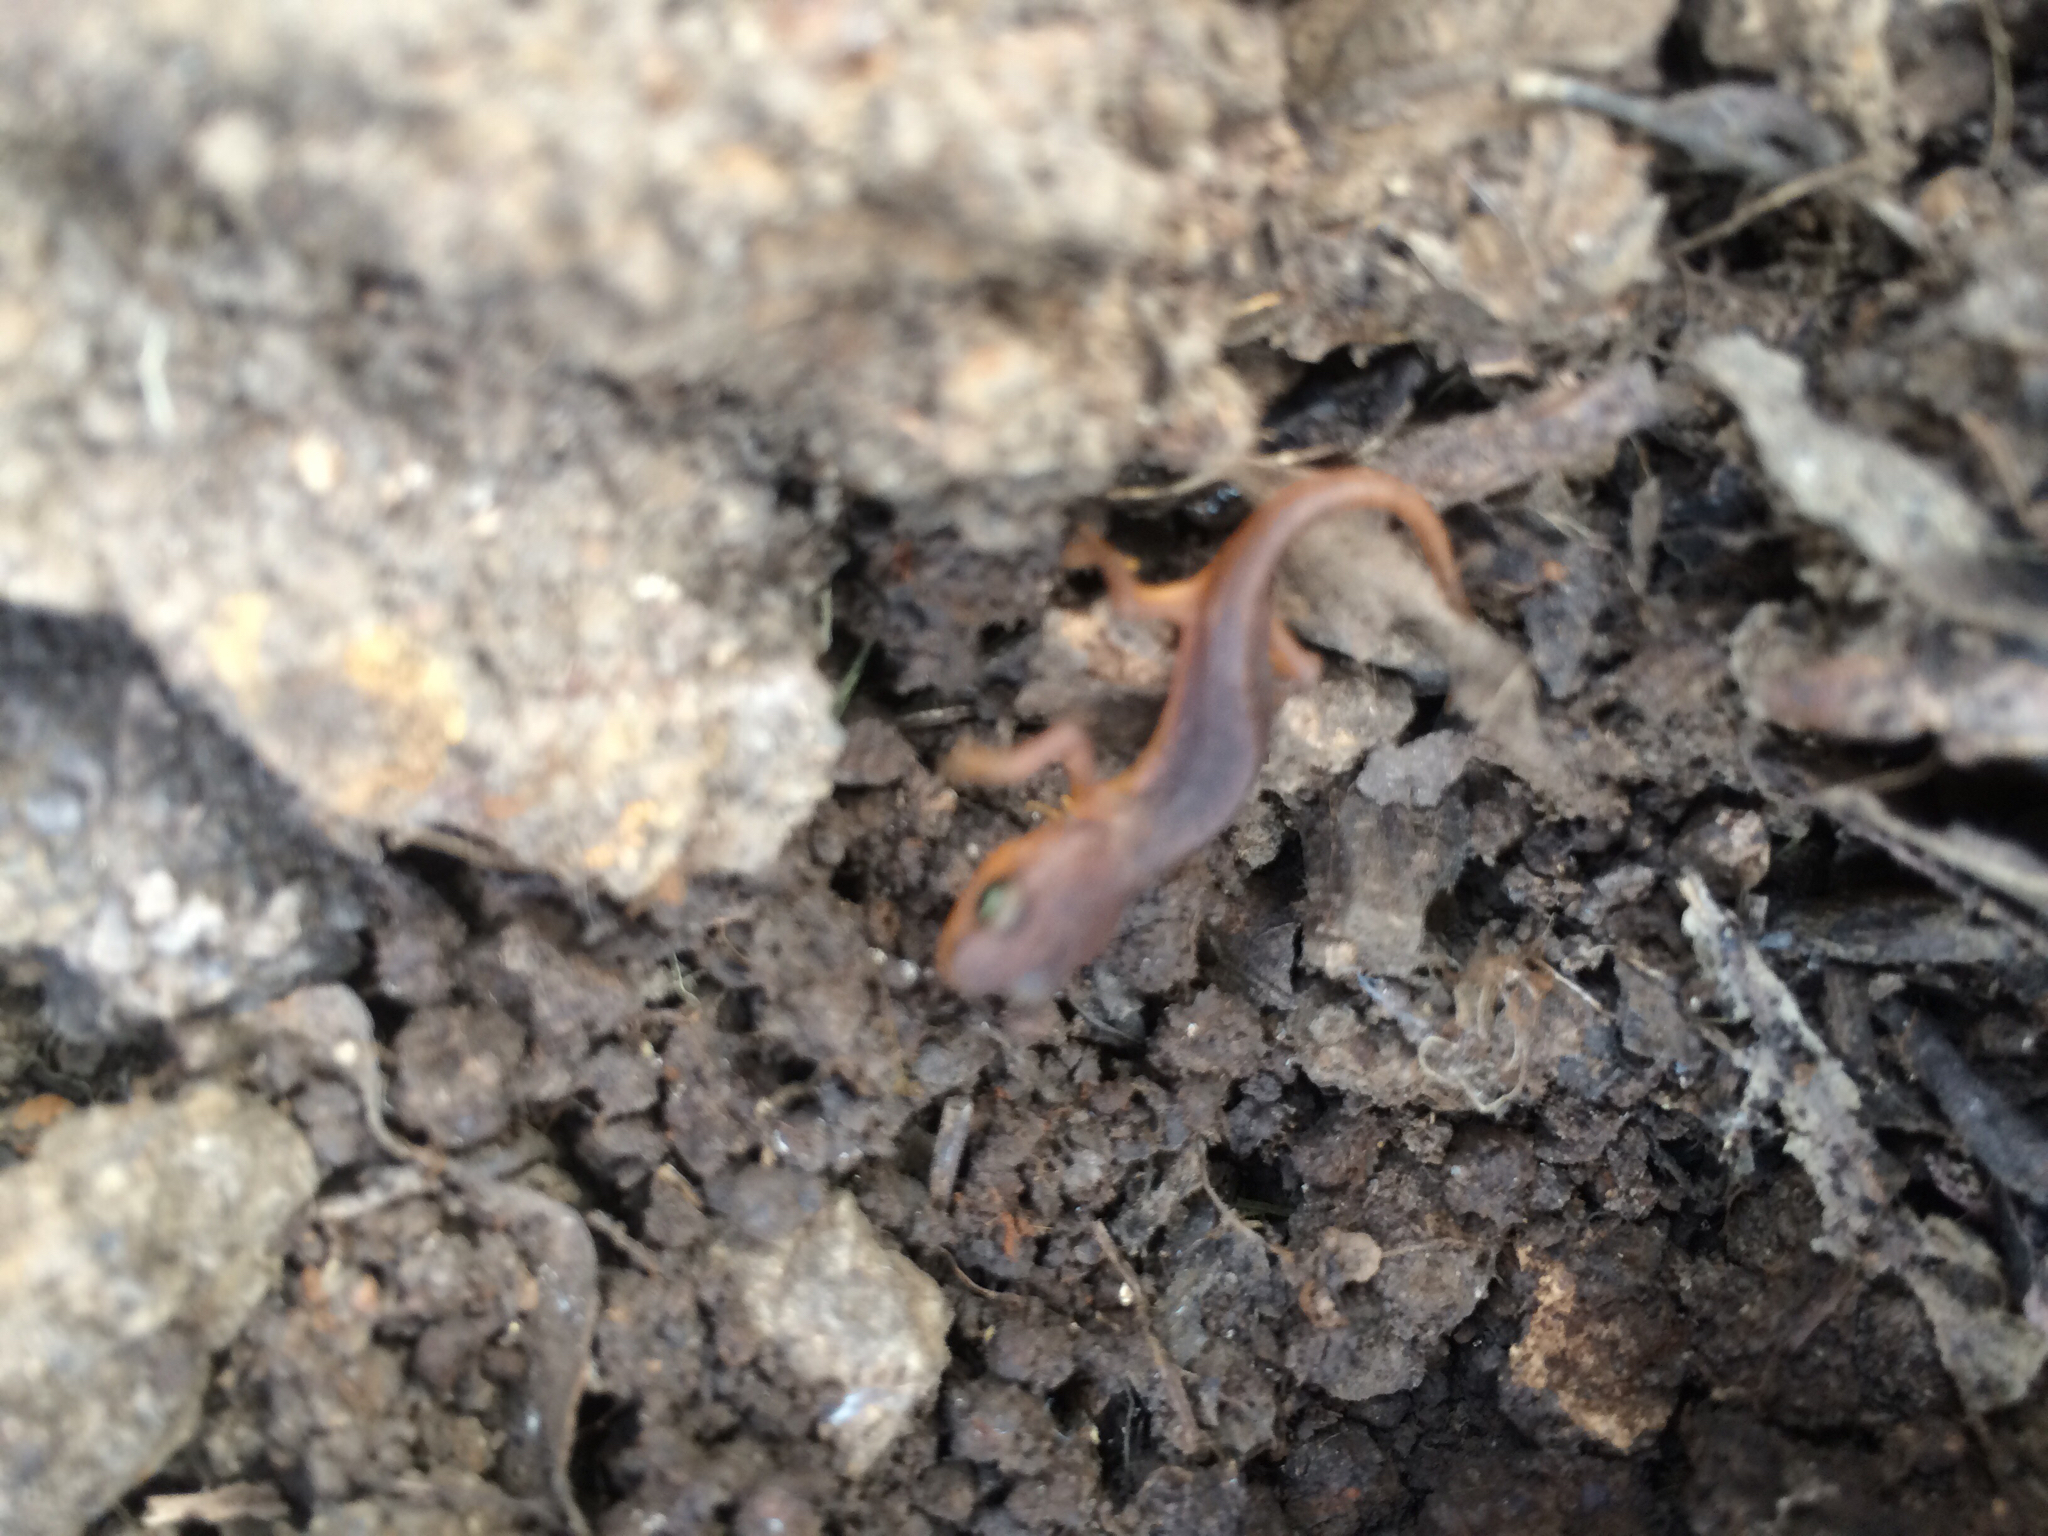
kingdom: Animalia
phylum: Chordata
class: Amphibia
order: Caudata
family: Salamandridae
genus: Taricha
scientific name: Taricha torosa
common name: California newt
